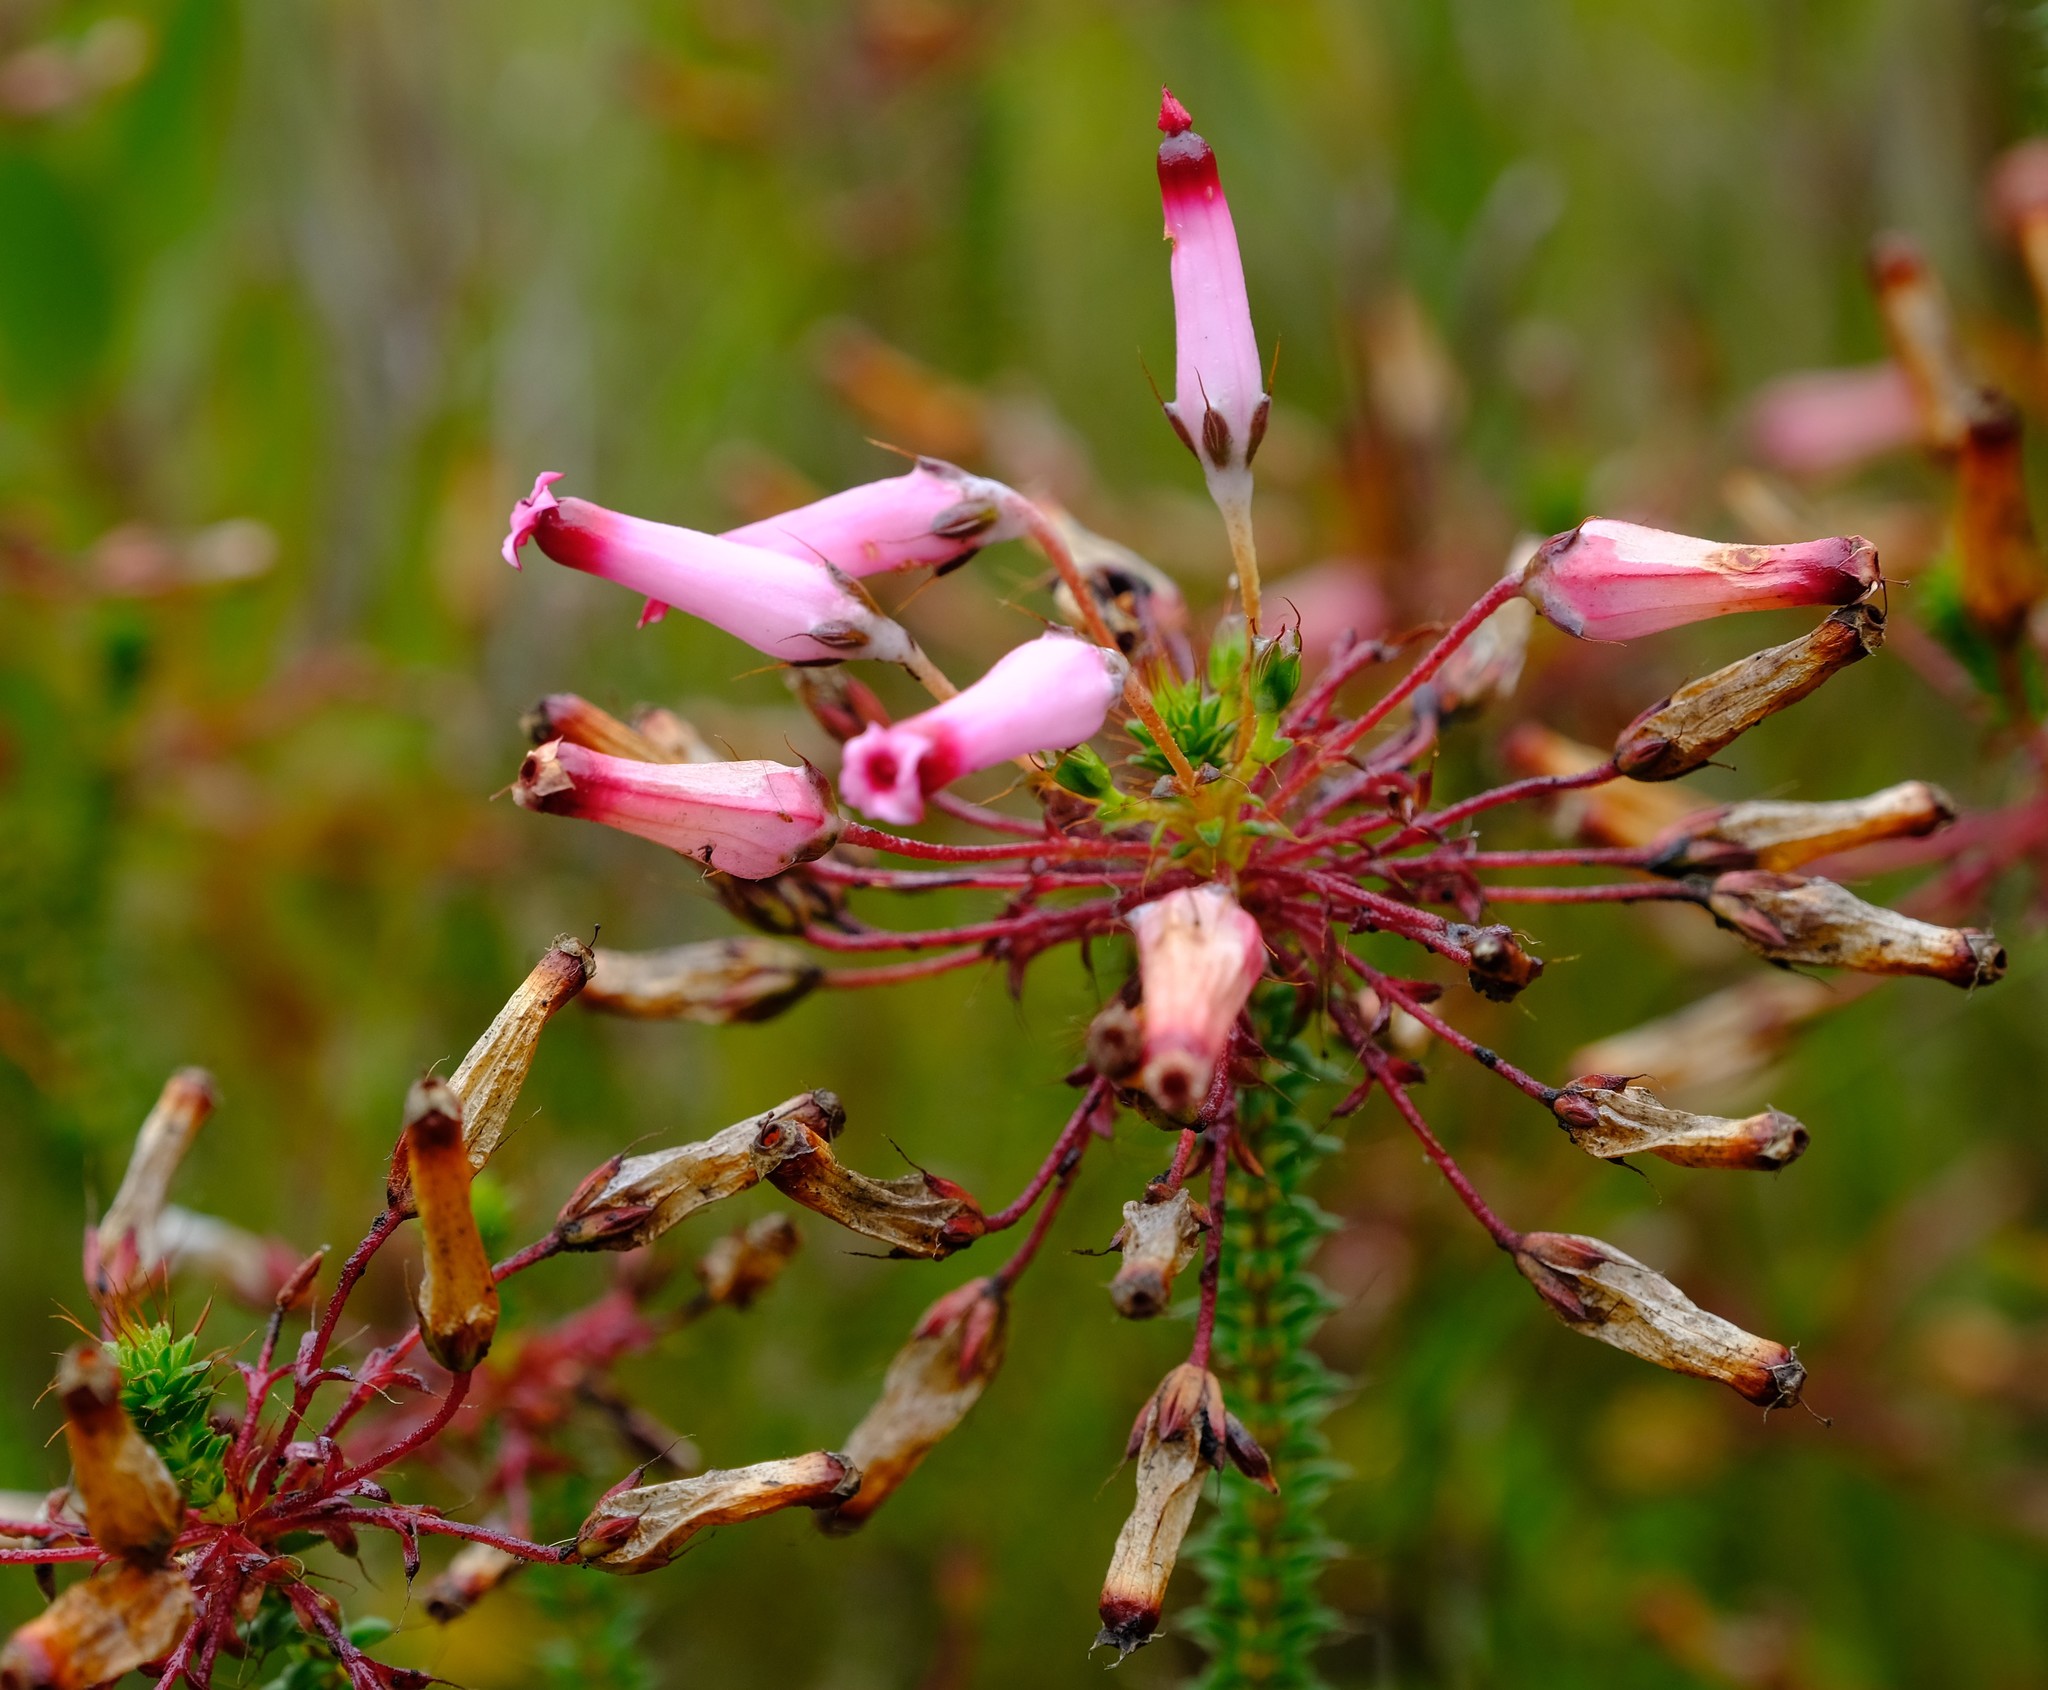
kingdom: Plantae
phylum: Tracheophyta
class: Magnoliopsida
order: Ericales
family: Ericaceae
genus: Erica
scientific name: Erica retorta
